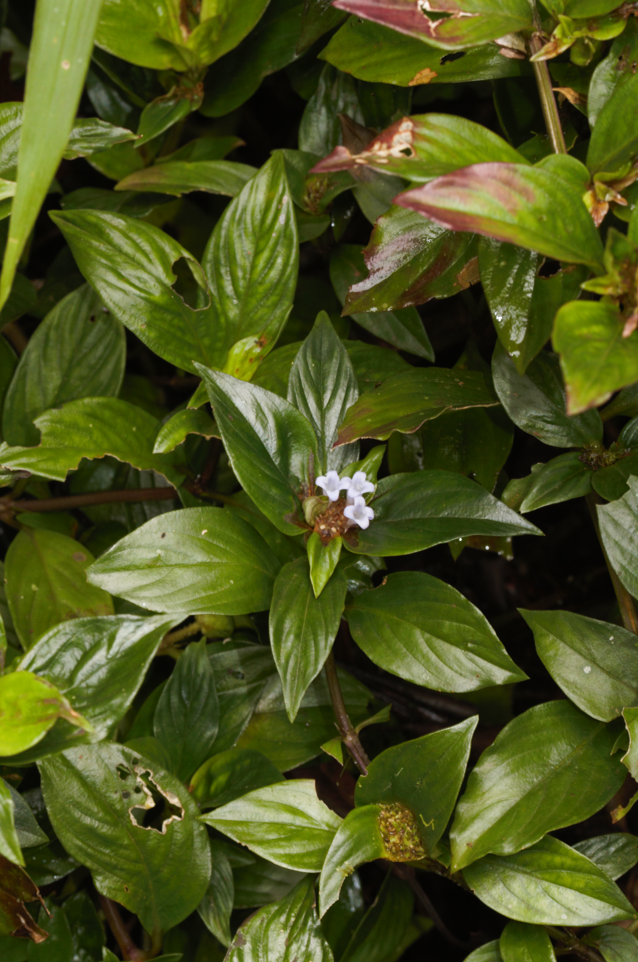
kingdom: Plantae
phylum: Tracheophyta
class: Magnoliopsida
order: Gentianales
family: Rubiaceae
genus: Spermacoce
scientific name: Spermacoce alata
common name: Winged false buttonweed
